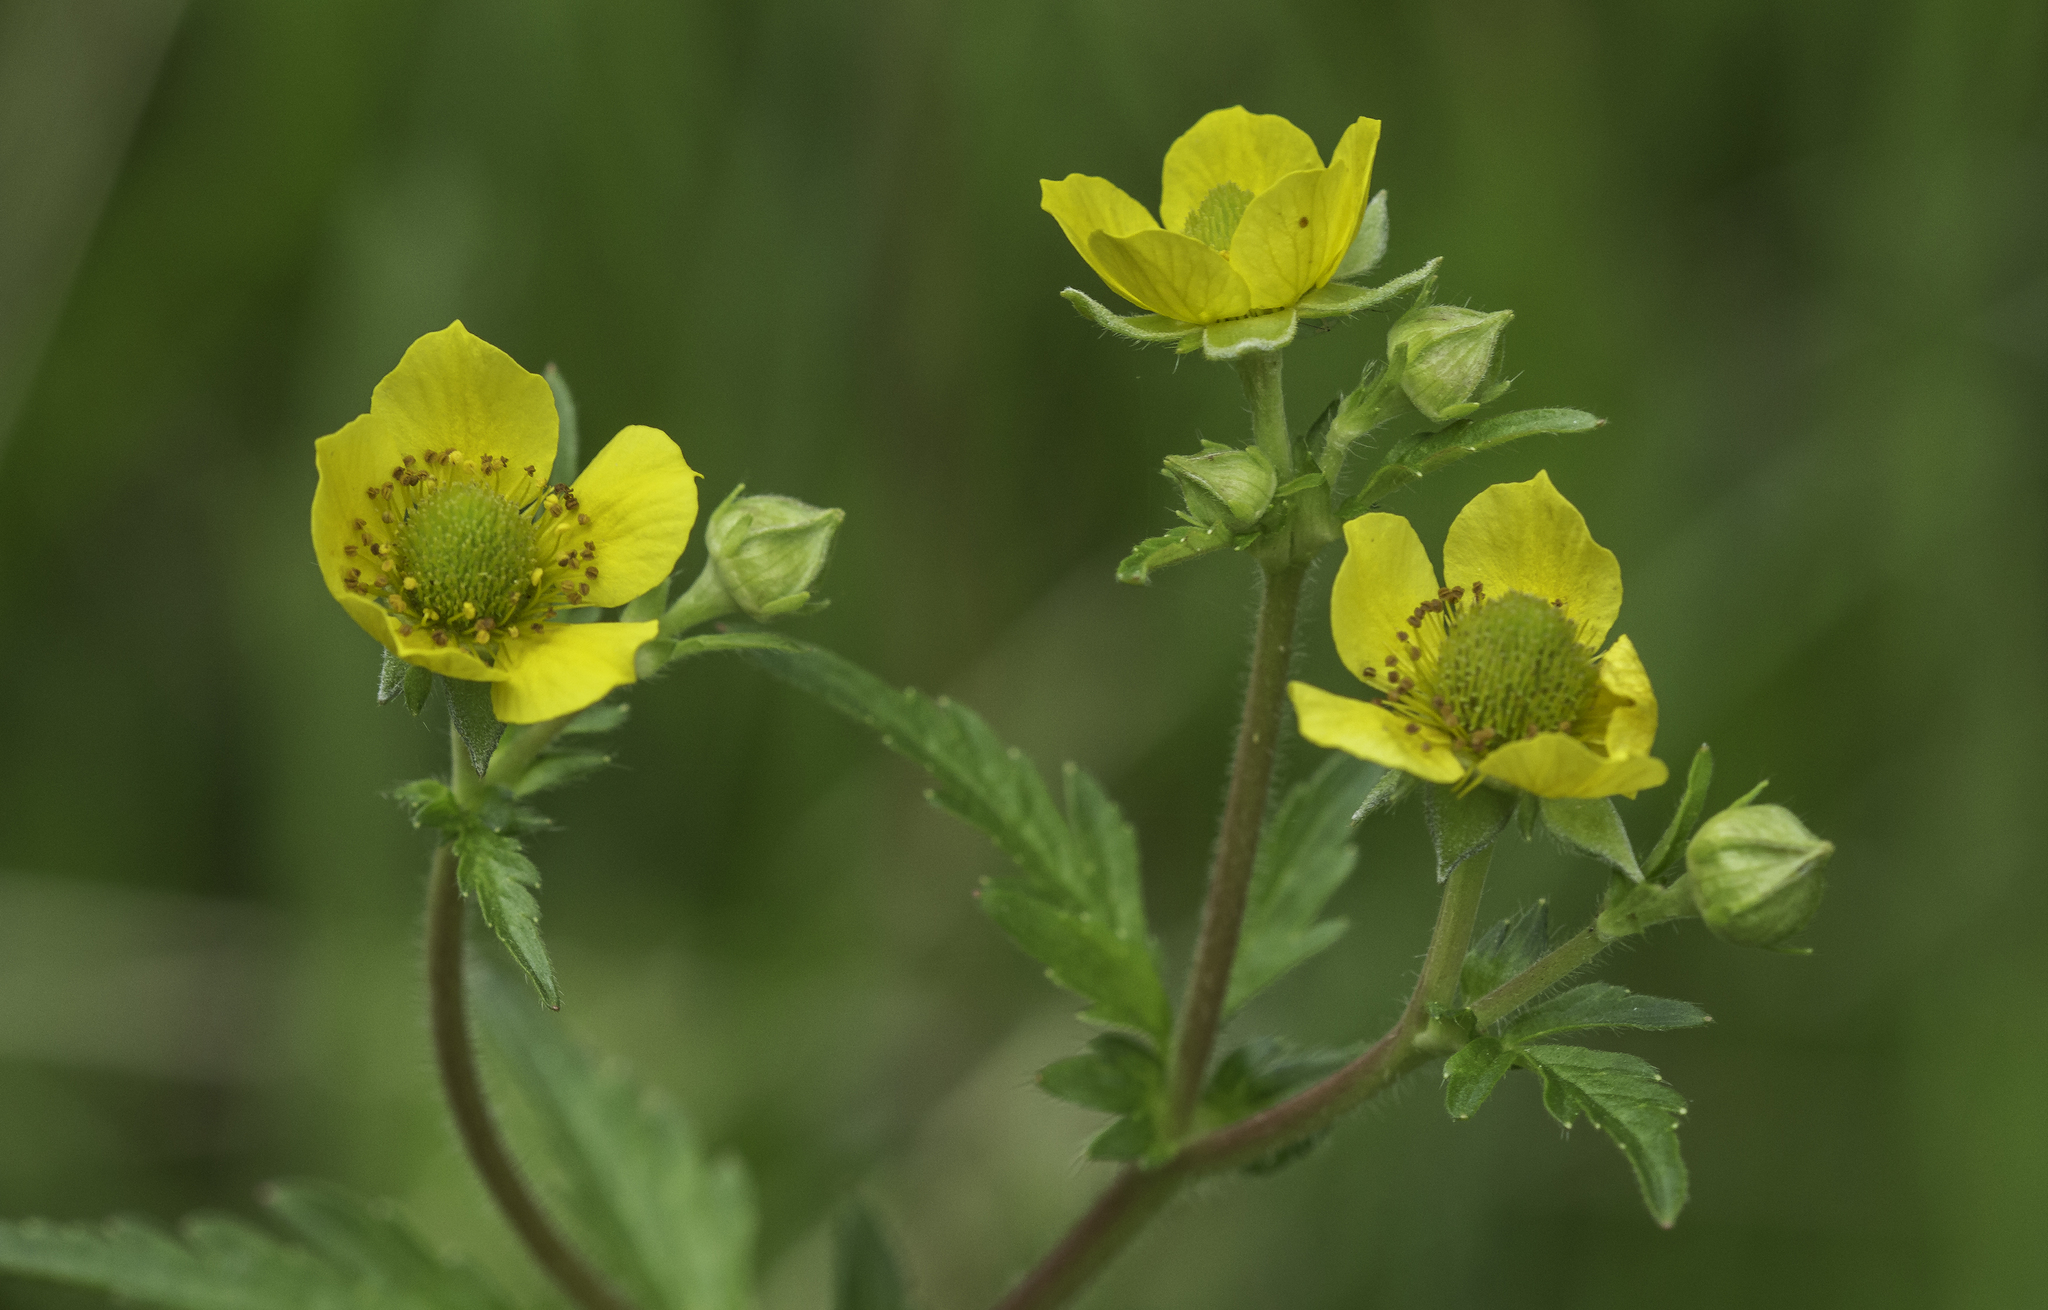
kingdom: Plantae
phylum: Tracheophyta
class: Magnoliopsida
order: Rosales
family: Rosaceae
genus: Geum
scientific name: Geum macrophyllum
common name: Large-leaved avens
